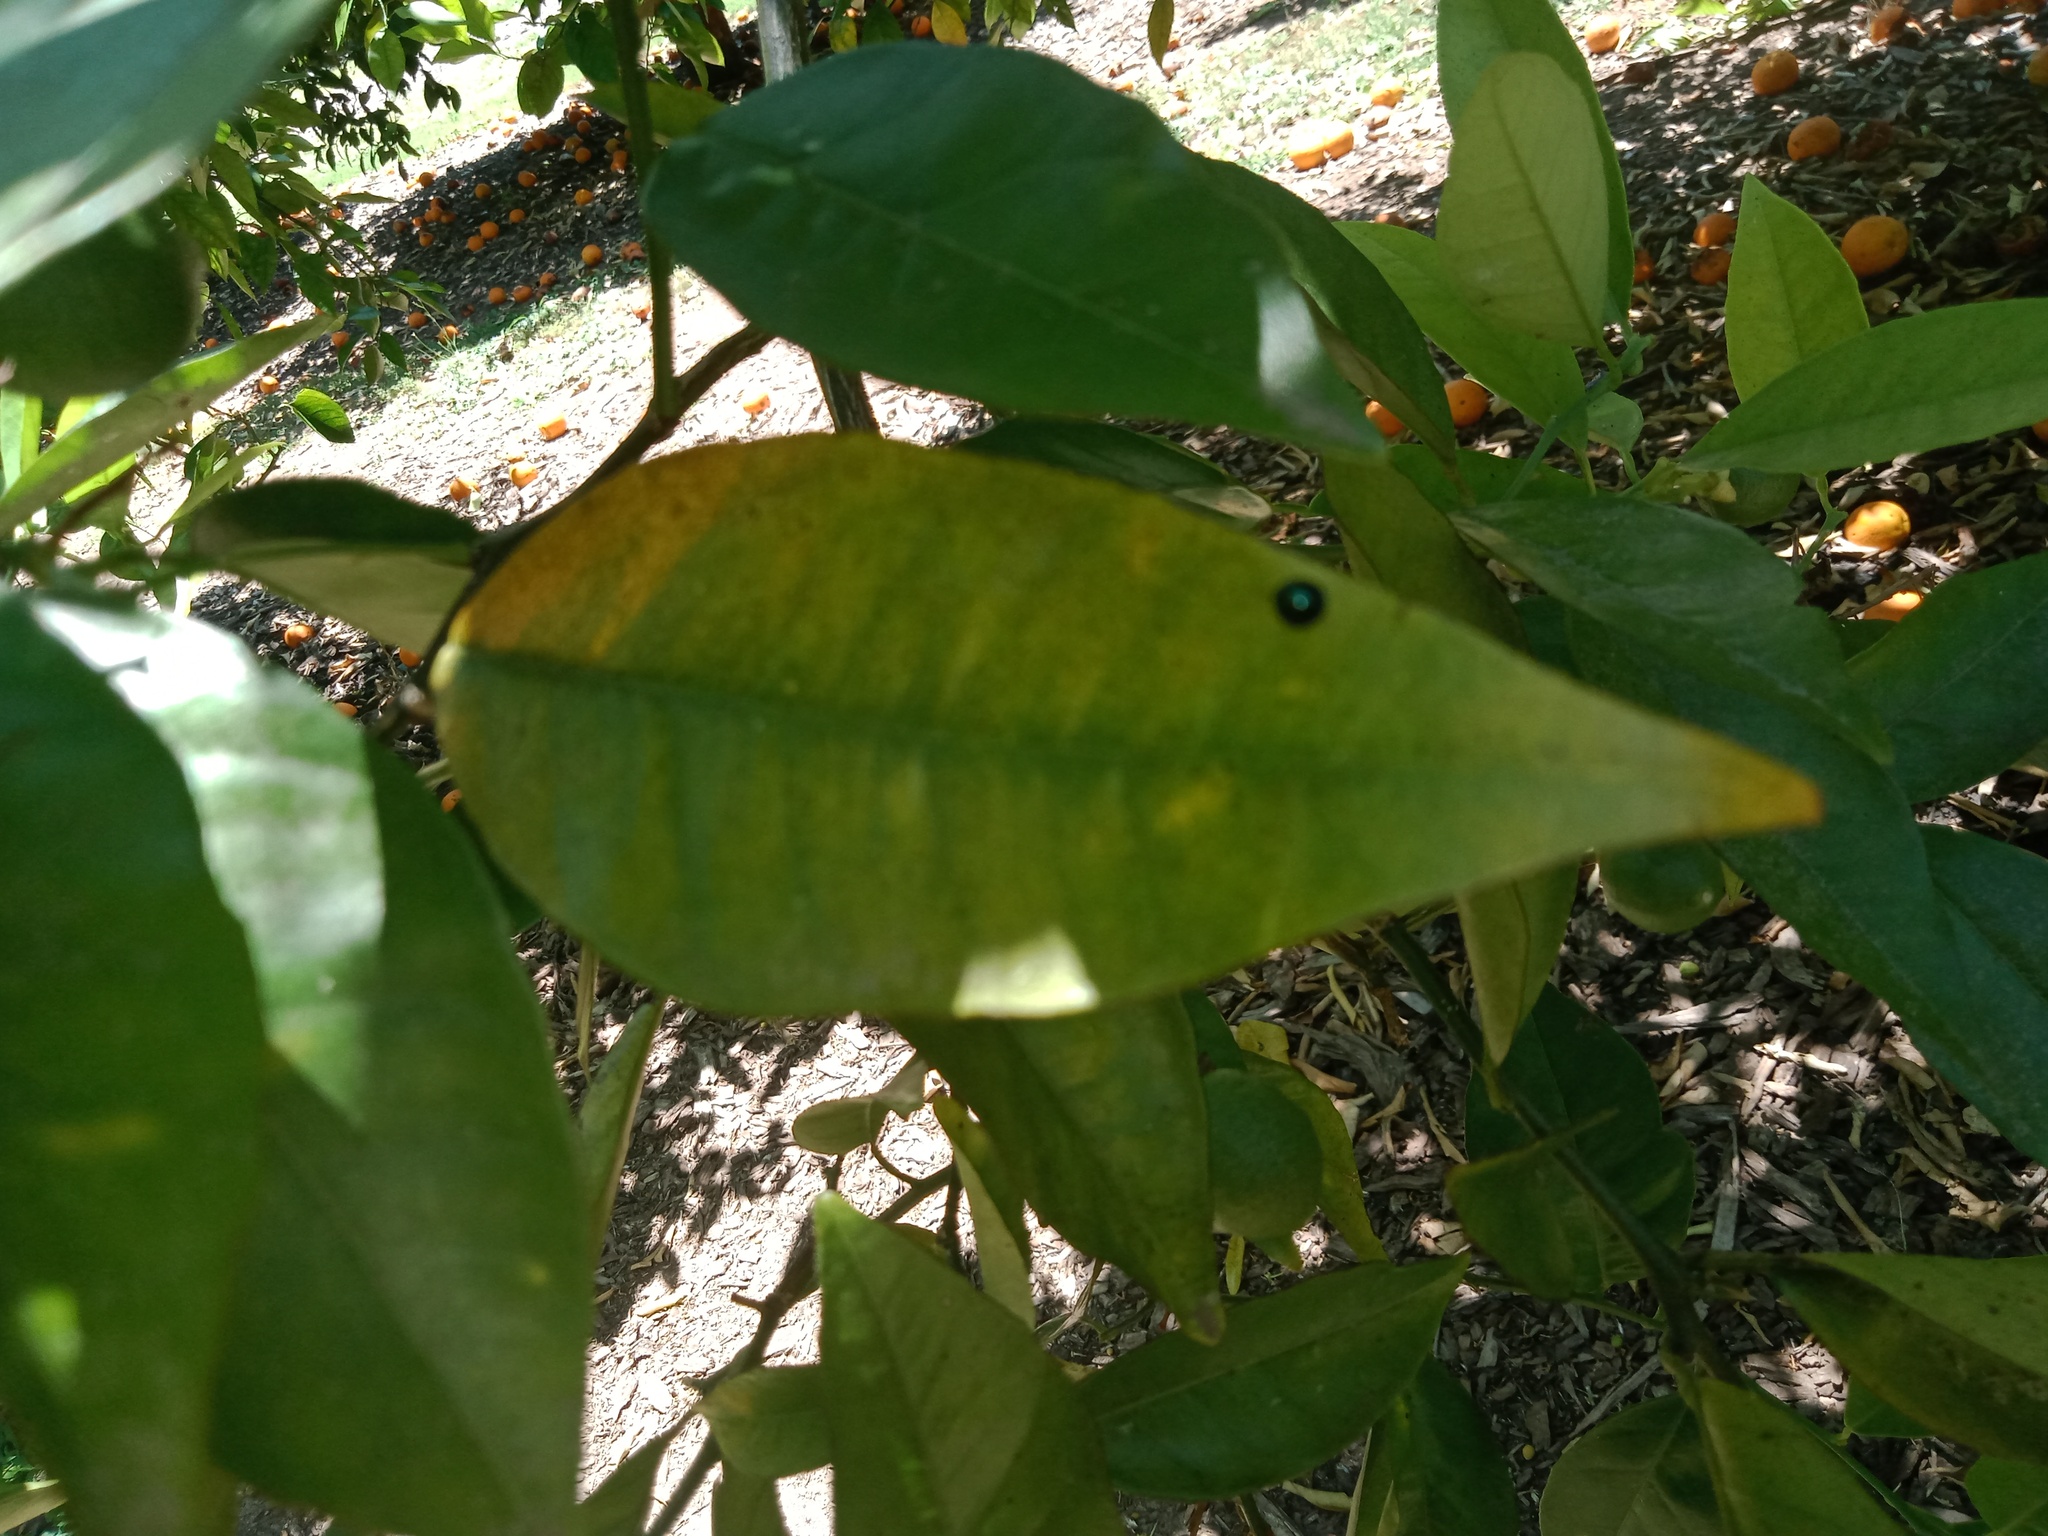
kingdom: Animalia
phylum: Arthropoda
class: Insecta
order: Coleoptera
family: Coccinellidae
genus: Halmus
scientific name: Halmus chalybeus
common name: Steel blue ladybird beetle
